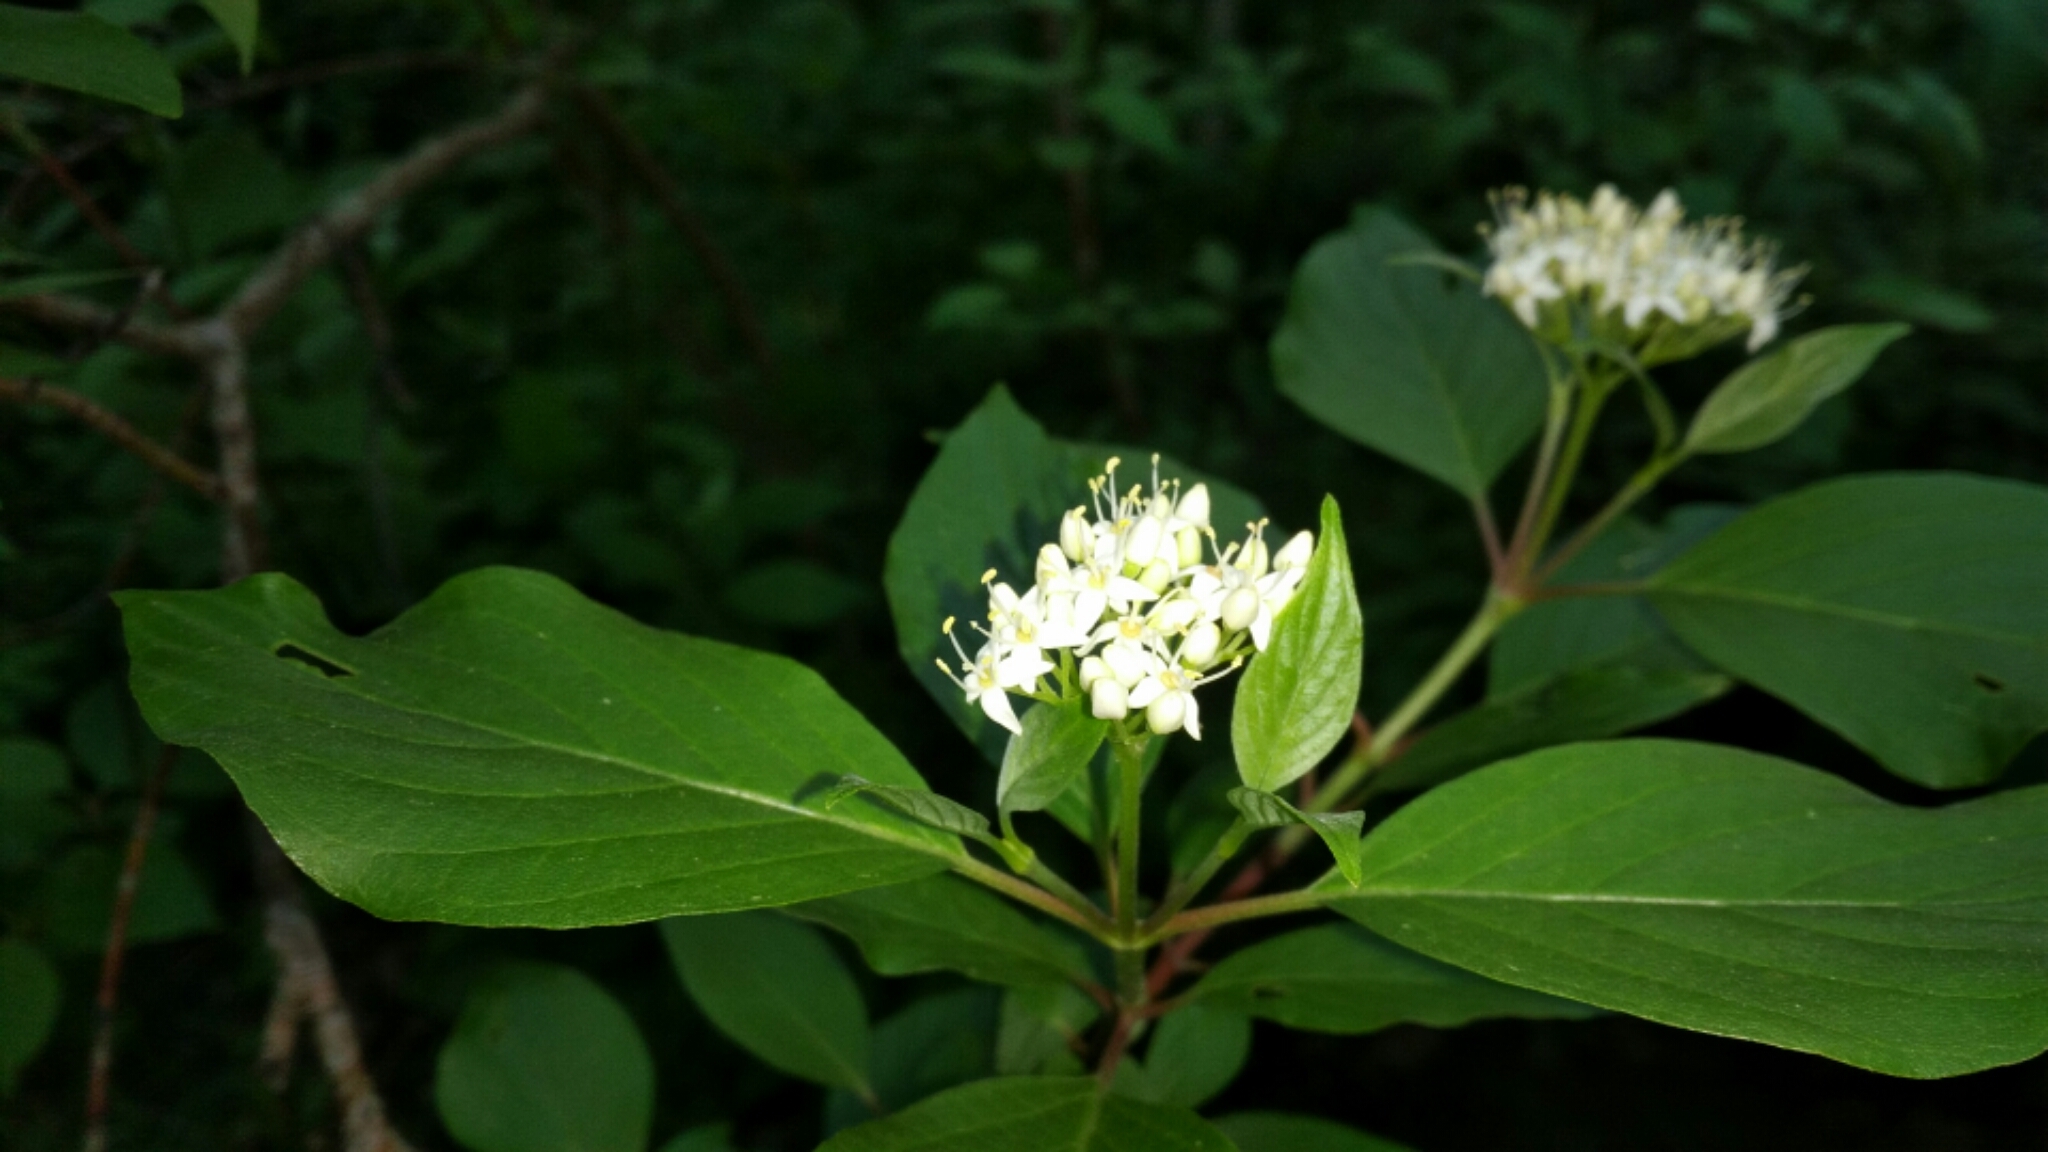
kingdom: Plantae
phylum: Tracheophyta
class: Magnoliopsida
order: Cornales
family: Cornaceae
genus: Cornus
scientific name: Cornus sericea
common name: Red-osier dogwood
